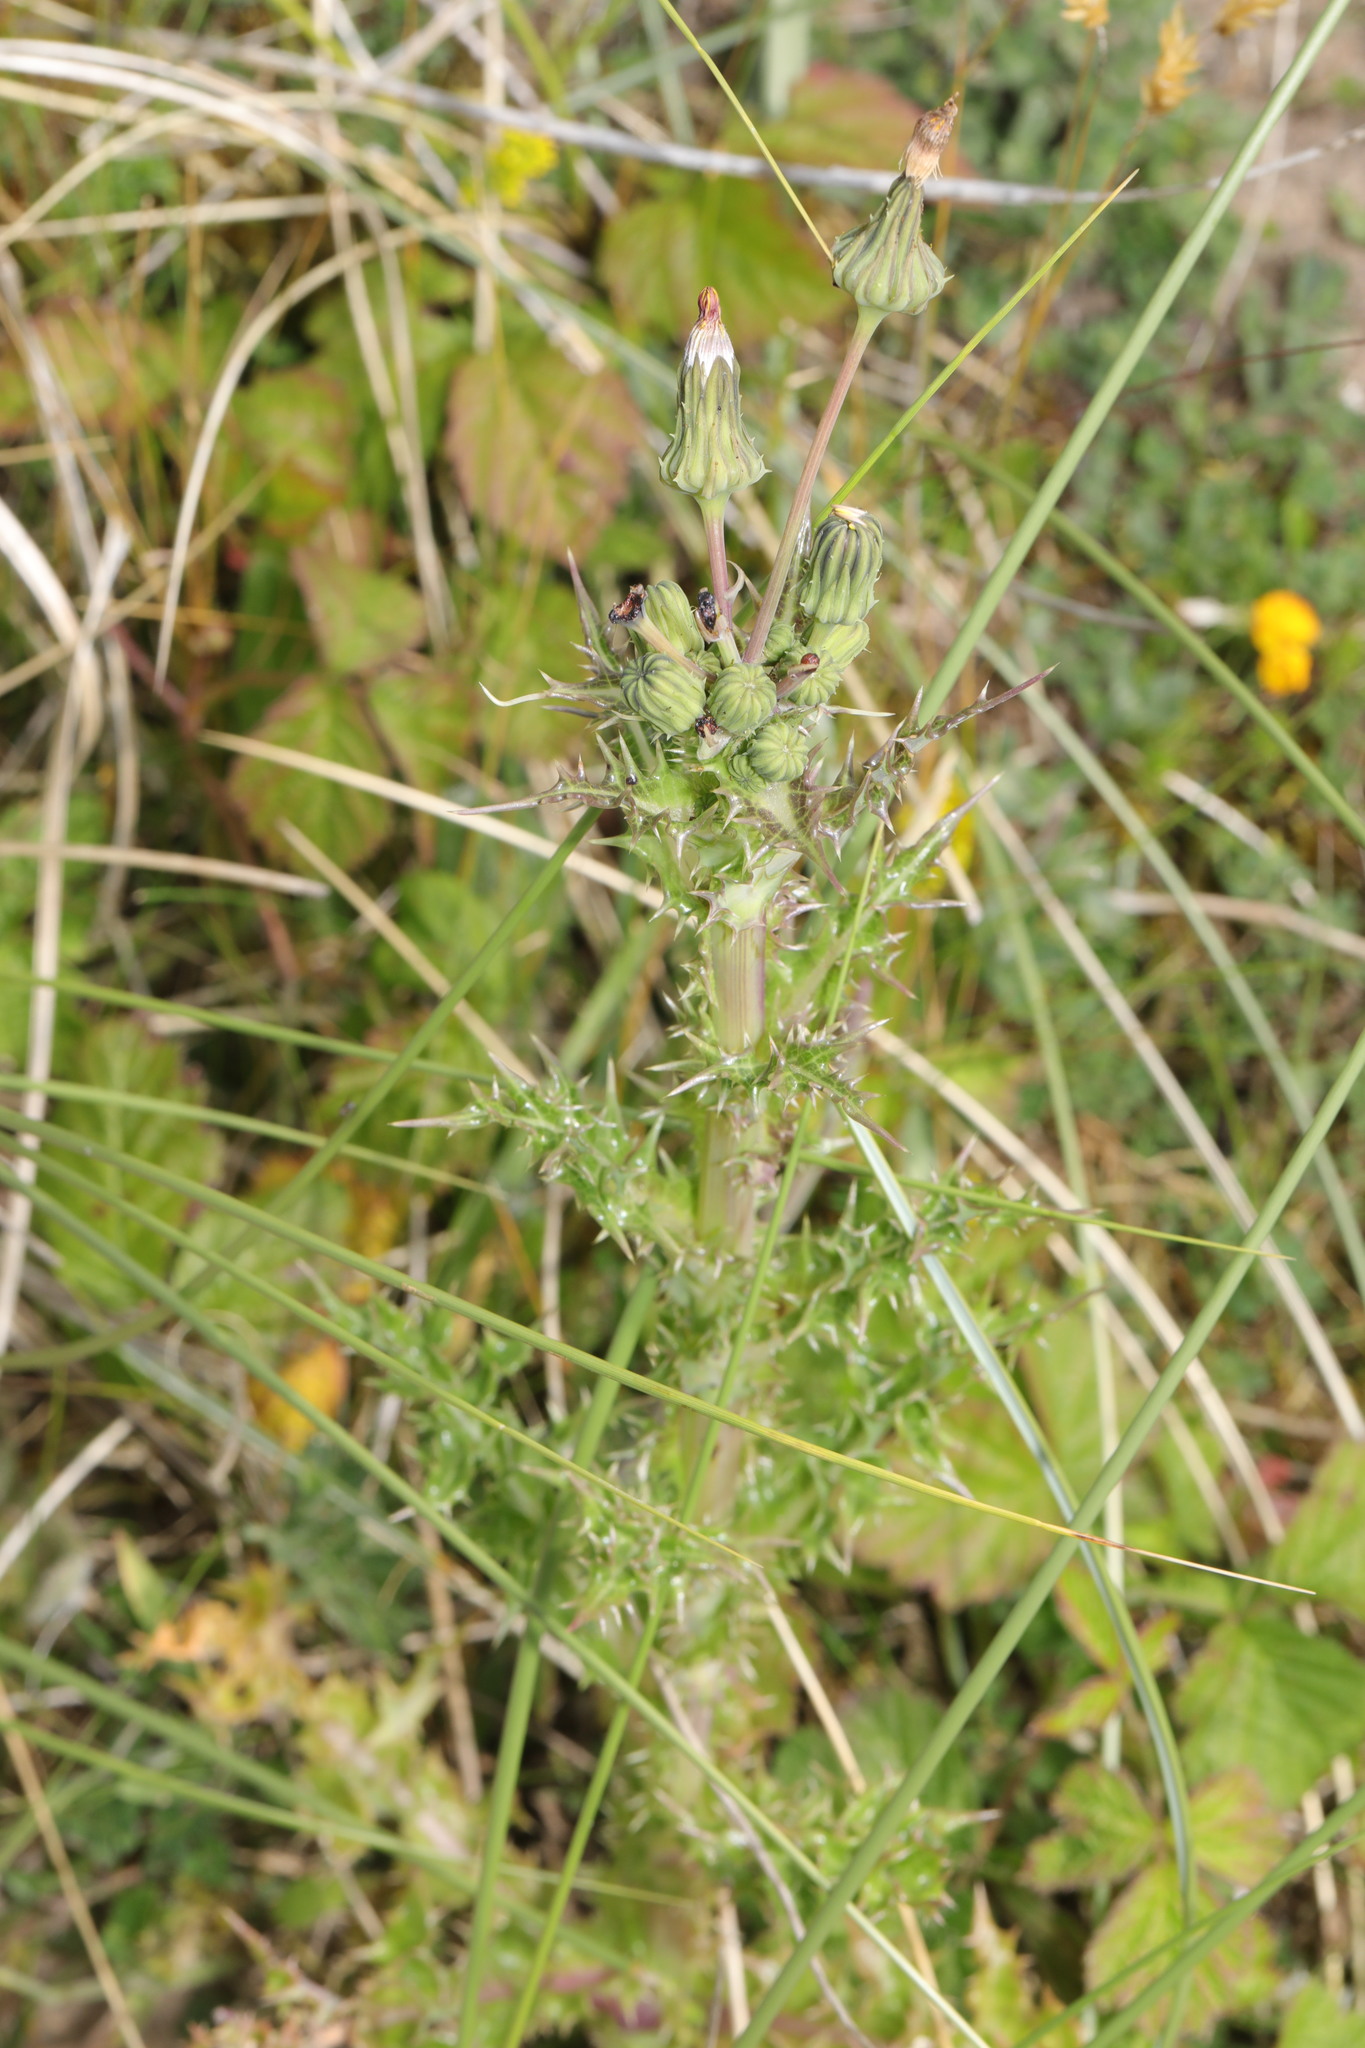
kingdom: Plantae
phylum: Tracheophyta
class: Magnoliopsida
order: Asterales
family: Asteraceae
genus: Sonchus
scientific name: Sonchus asper
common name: Prickly sow-thistle
